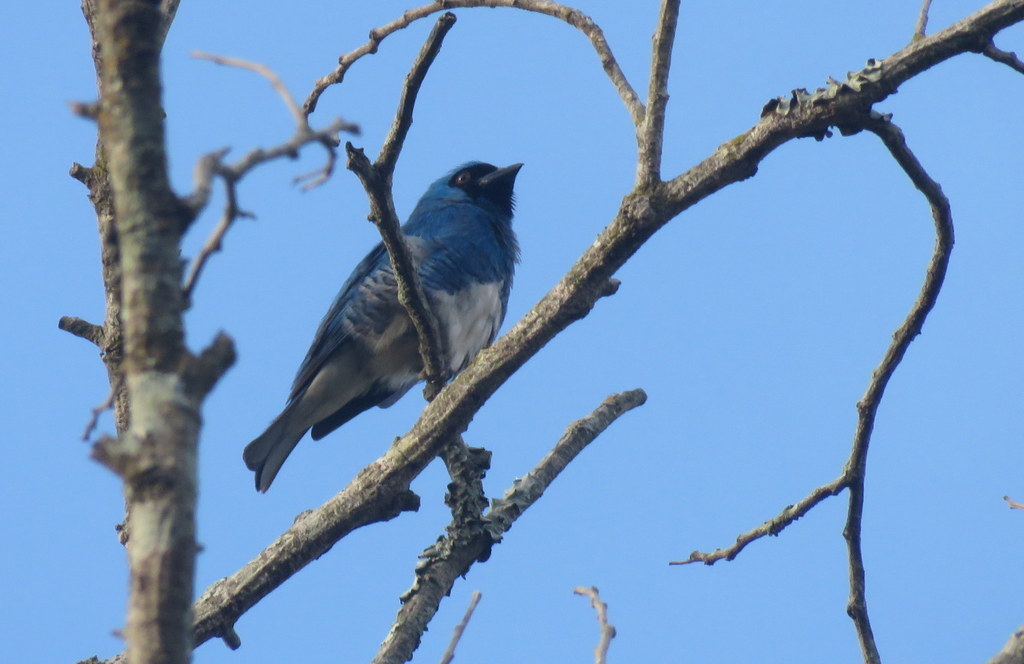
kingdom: Animalia
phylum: Chordata
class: Aves
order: Passeriformes
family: Thraupidae
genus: Tersina
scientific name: Tersina viridis
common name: Swallow tanager
